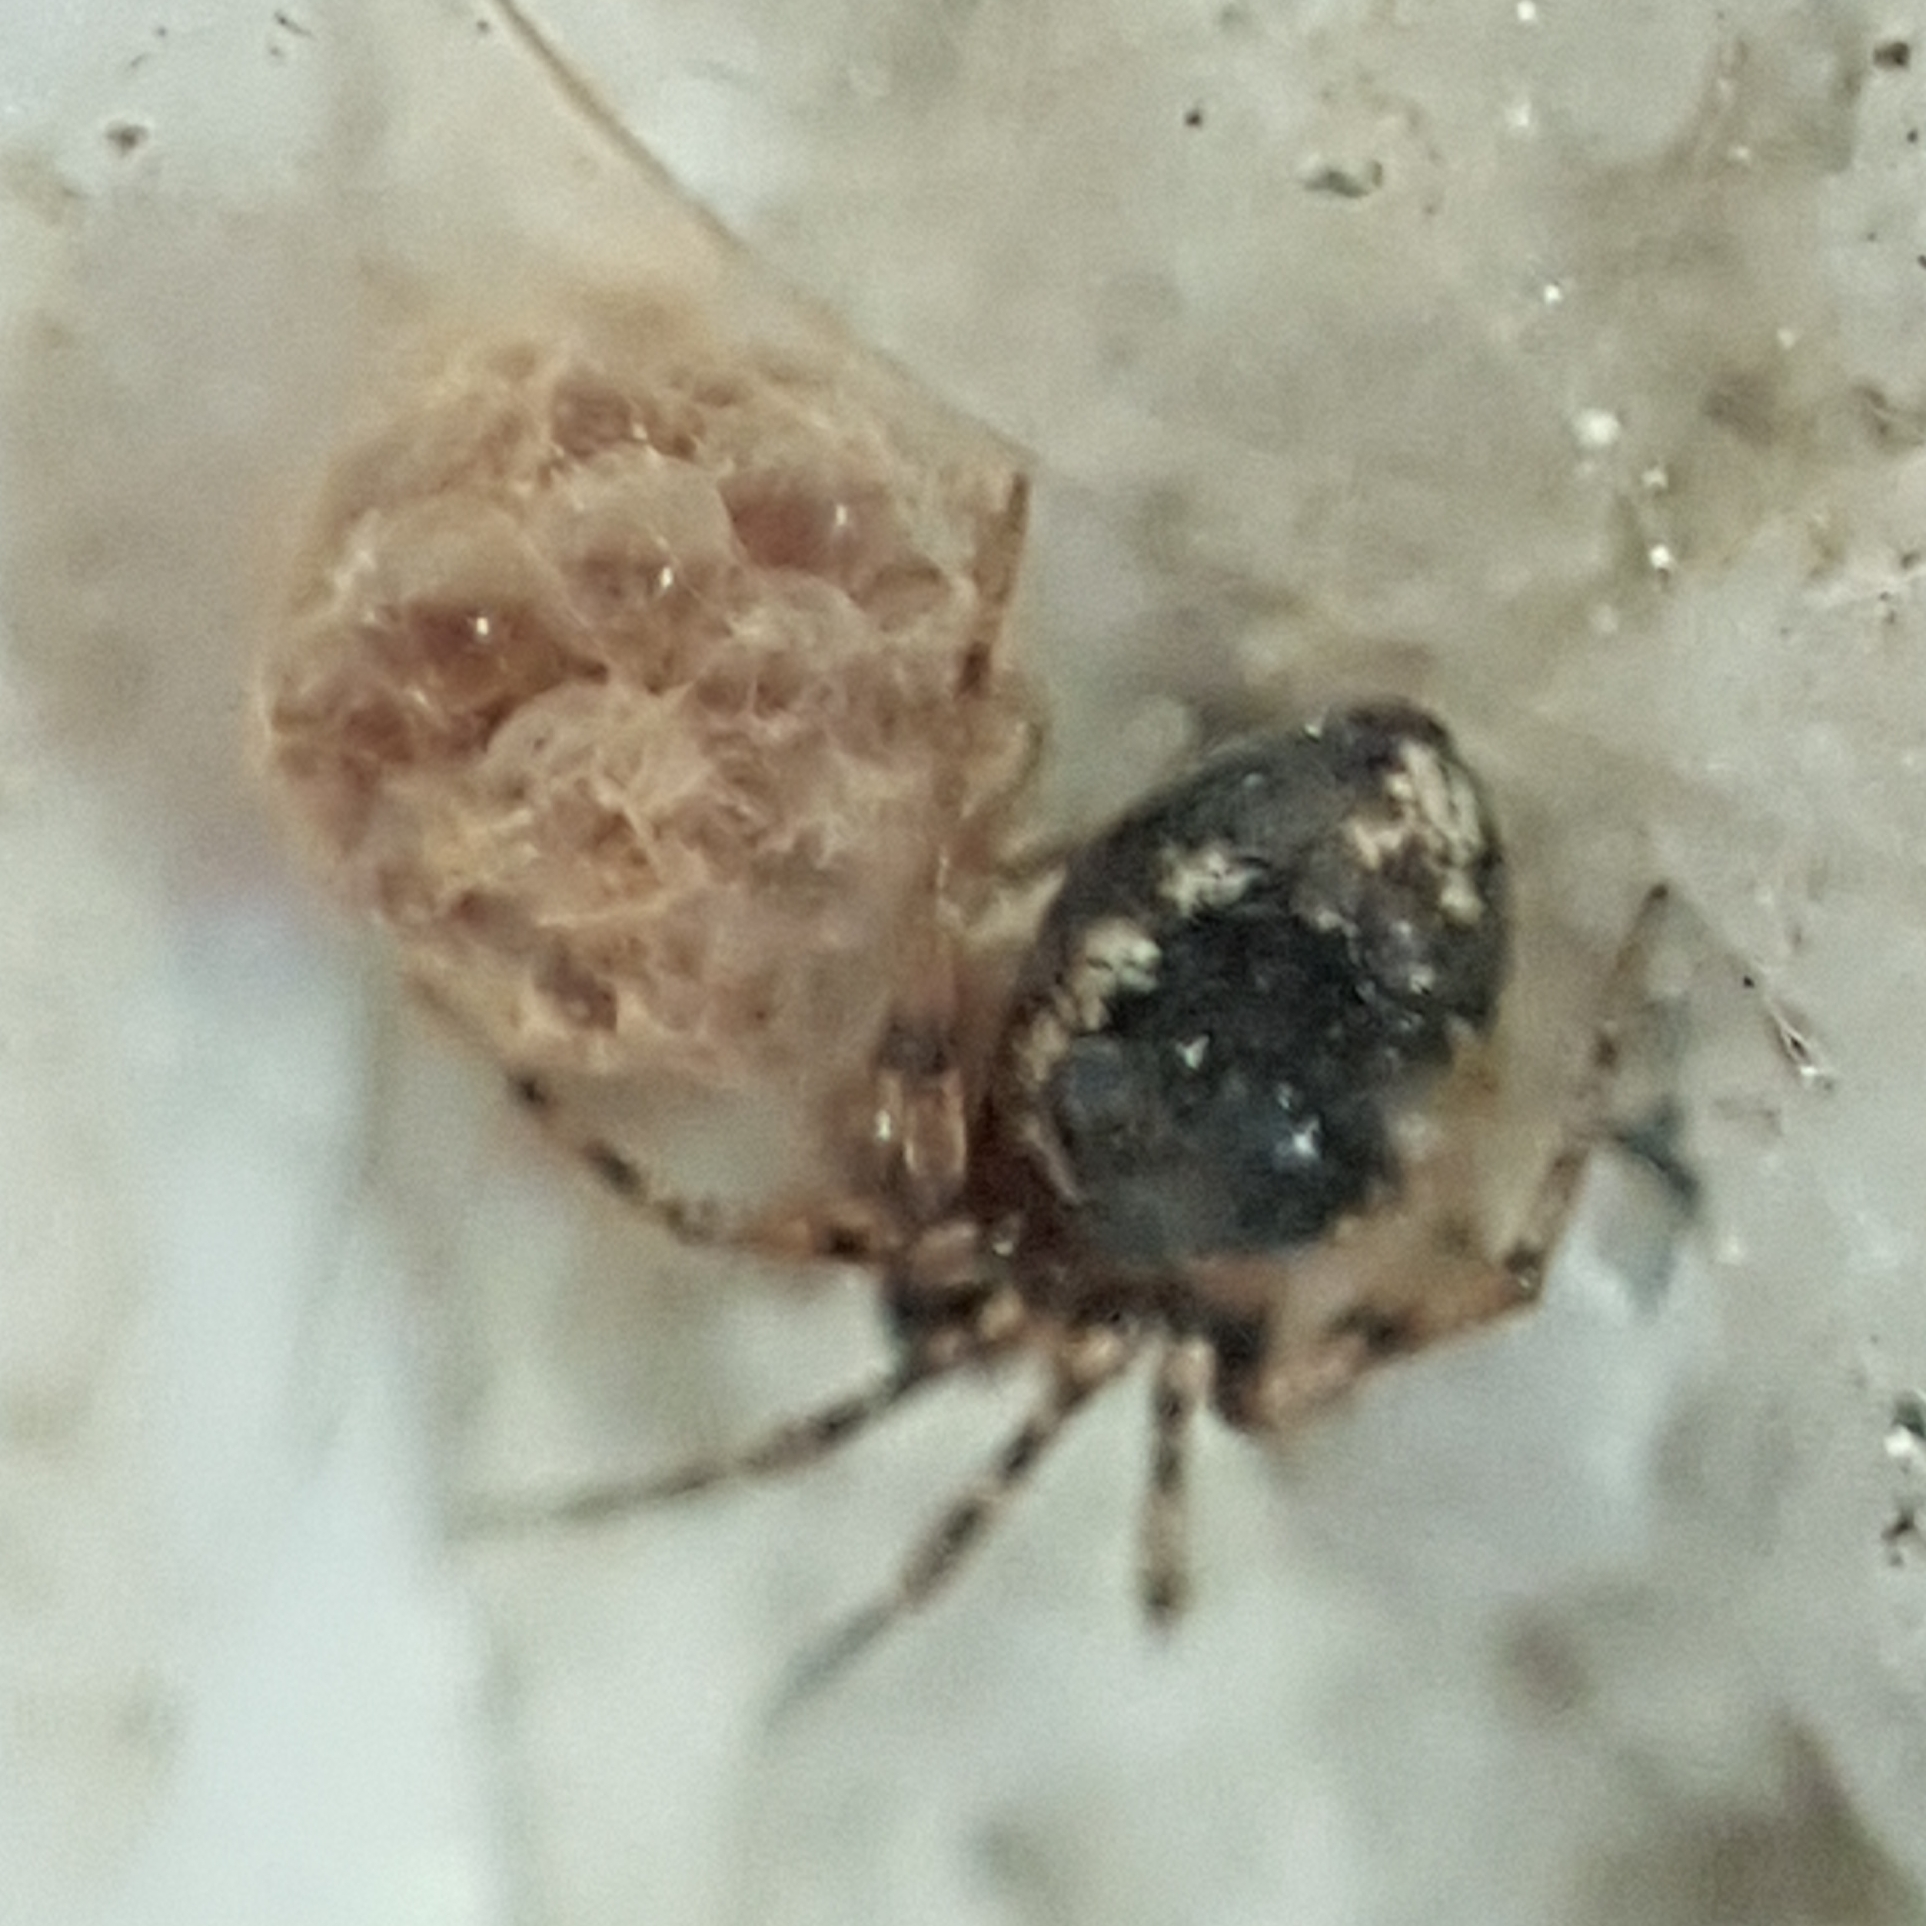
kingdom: Animalia
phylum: Arthropoda
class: Arachnida
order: Araneae
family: Theridiidae
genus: Sardinidion
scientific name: Sardinidion blackwalli
